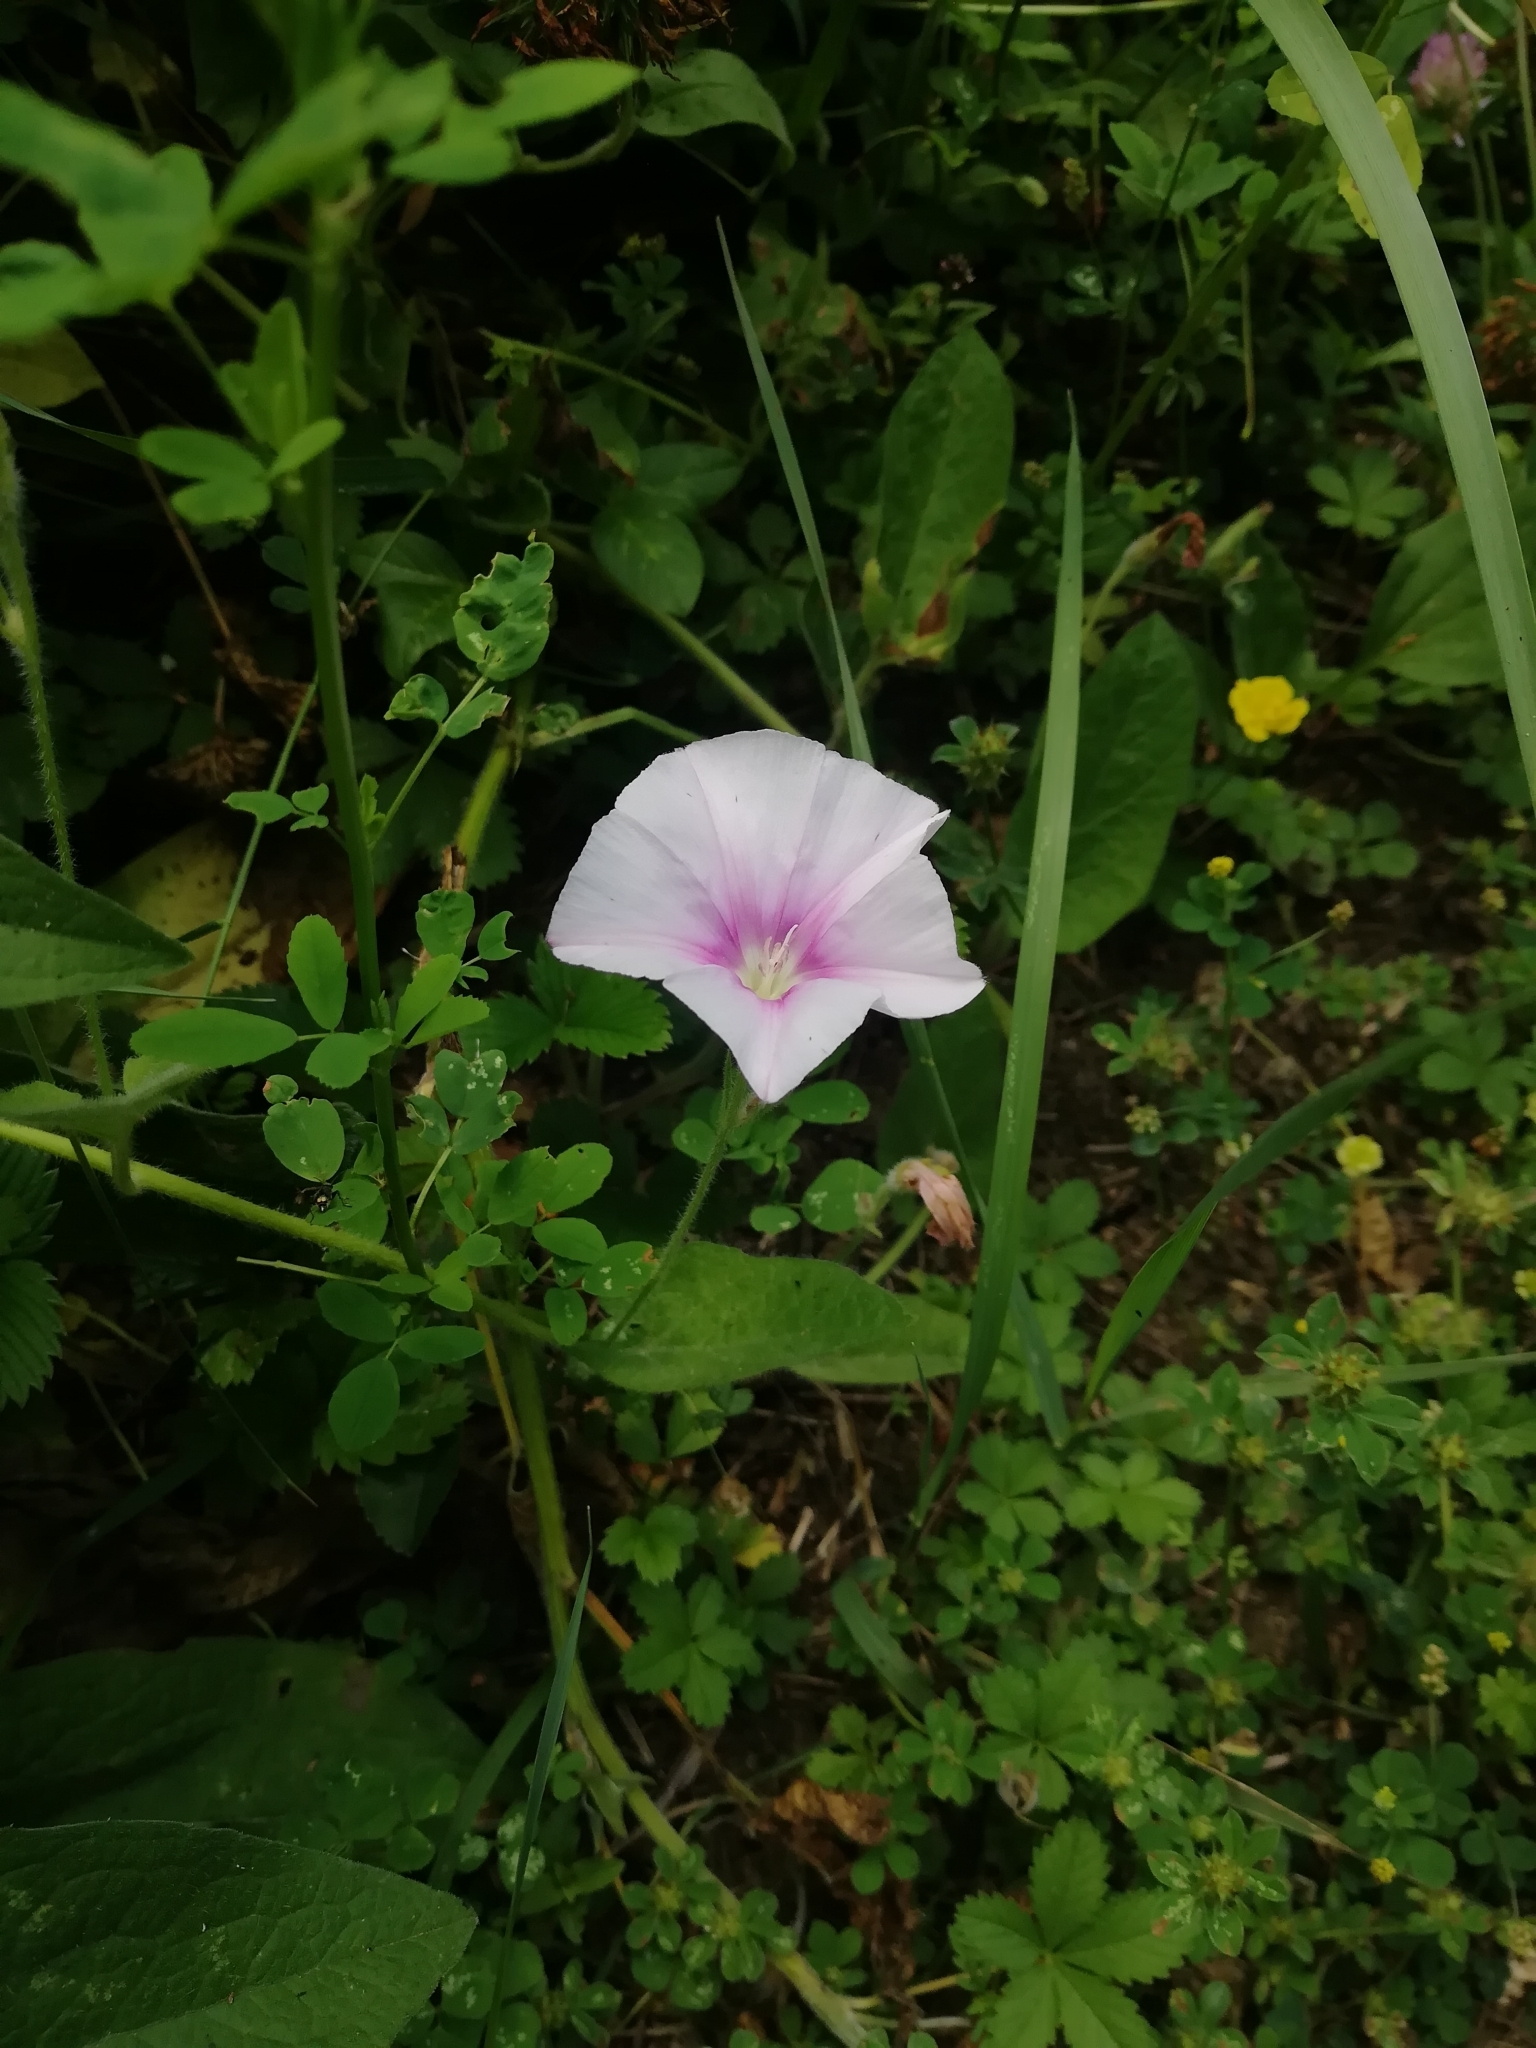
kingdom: Plantae
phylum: Tracheophyta
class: Magnoliopsida
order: Solanales
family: Convolvulaceae
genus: Convolvulus
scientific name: Convolvulus betonicifolius
